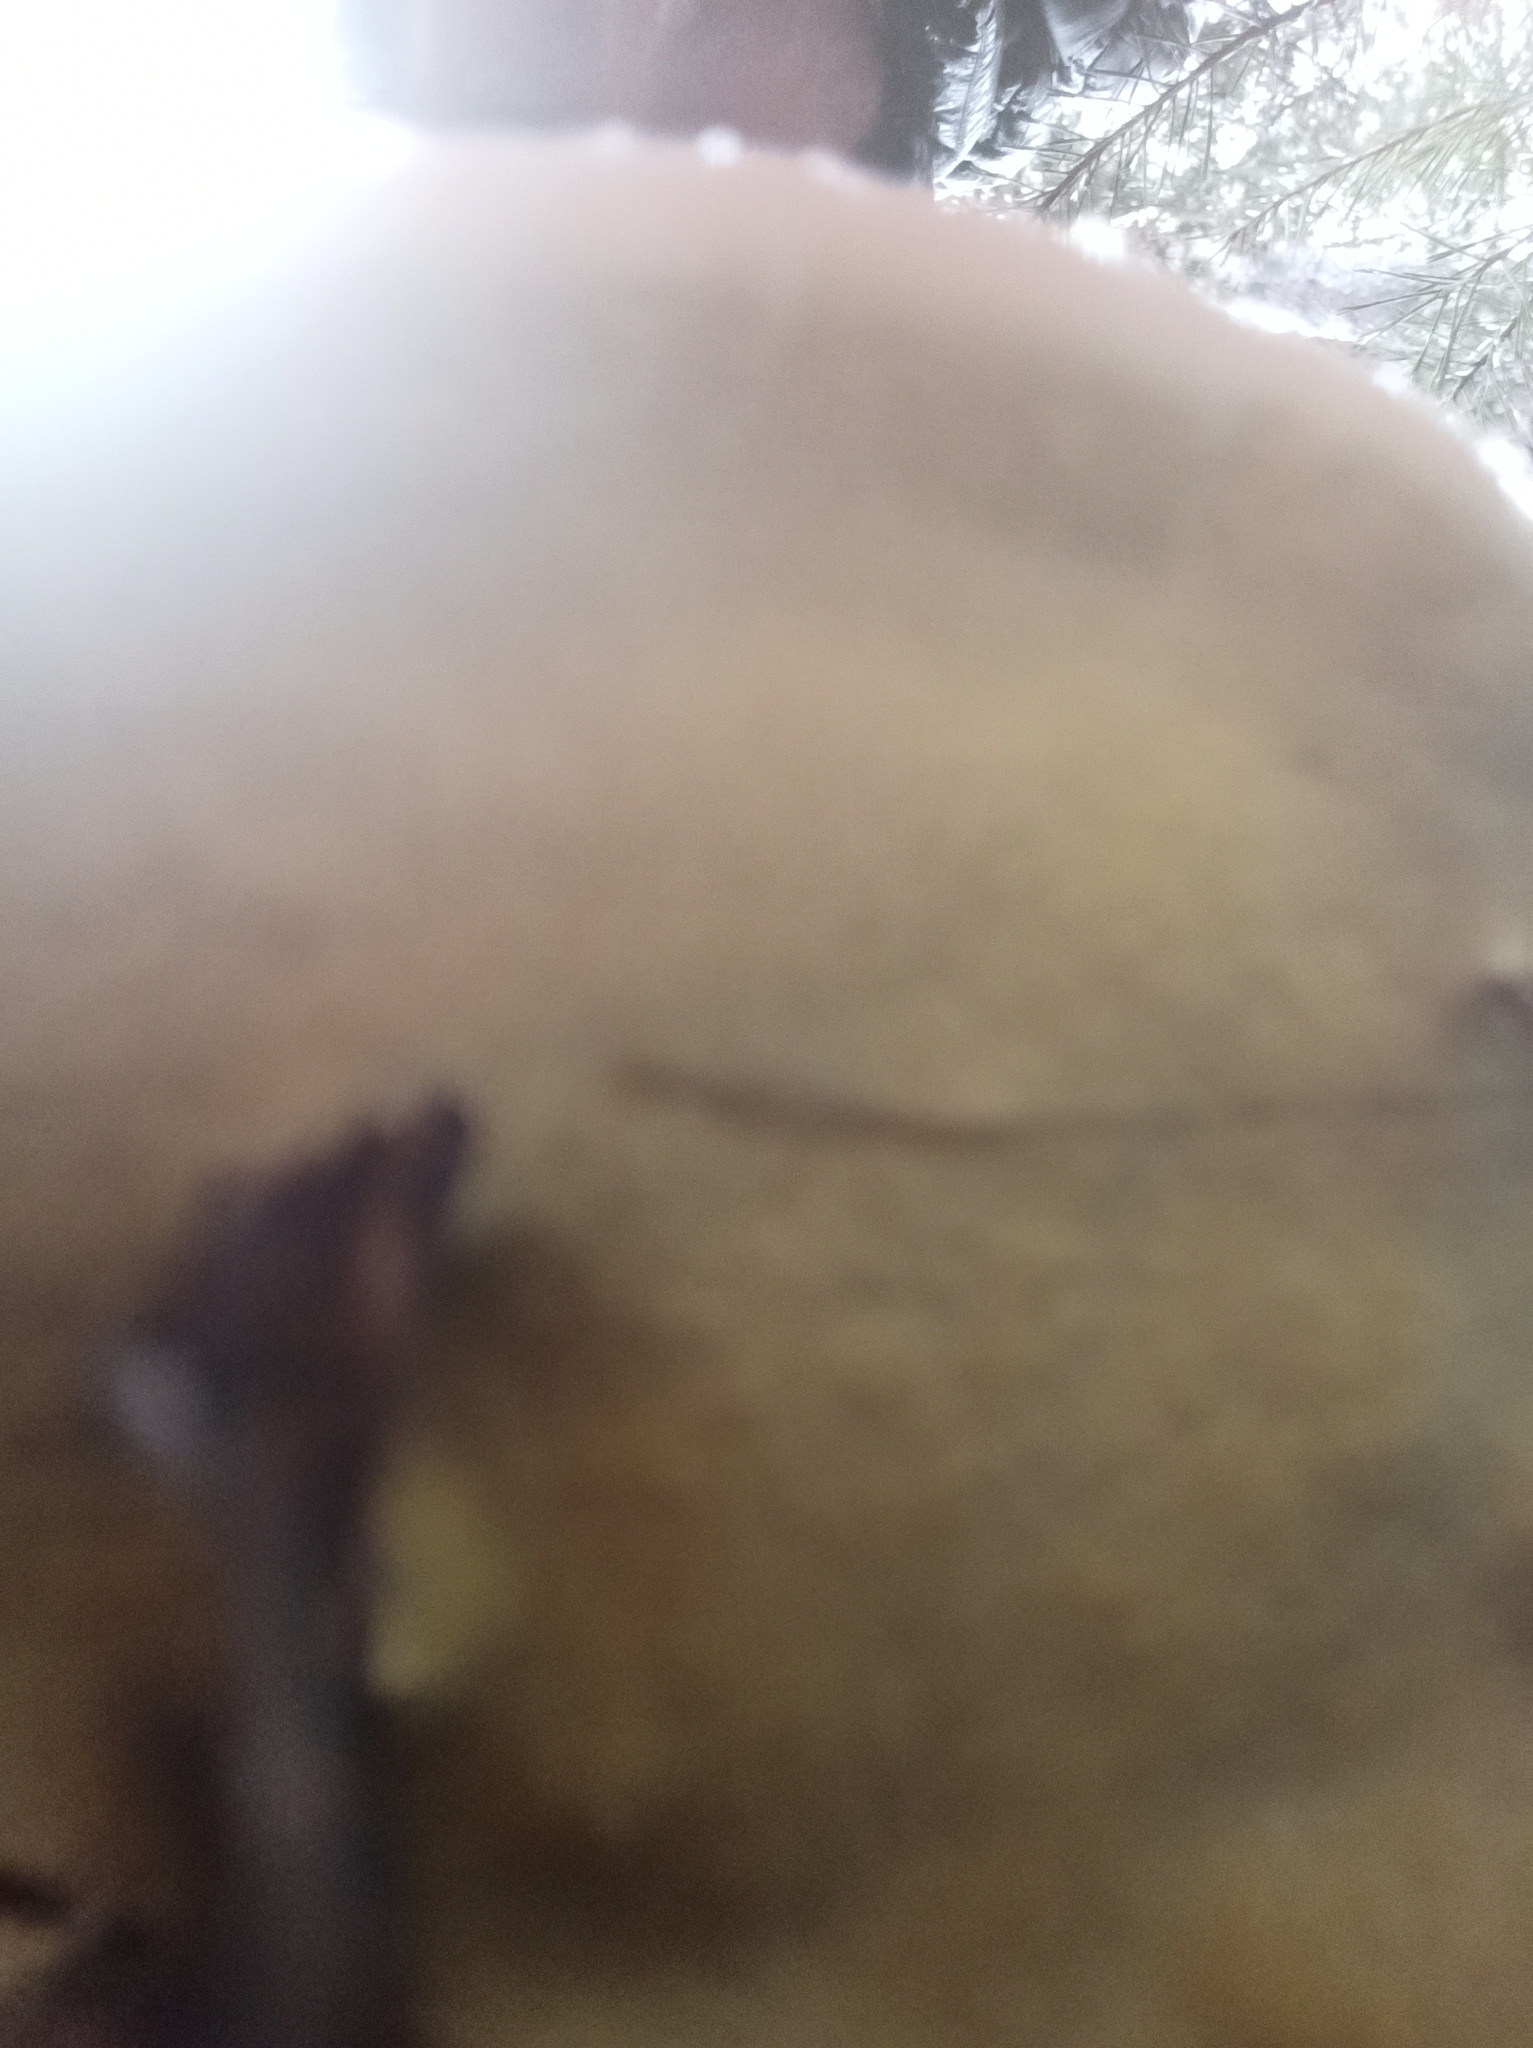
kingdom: Fungi
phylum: Basidiomycota
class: Agaricomycetes
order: Polyporales
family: Fomitopsidaceae
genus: Fomitopsis
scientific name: Fomitopsis pinicola
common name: Red-belted bracket
